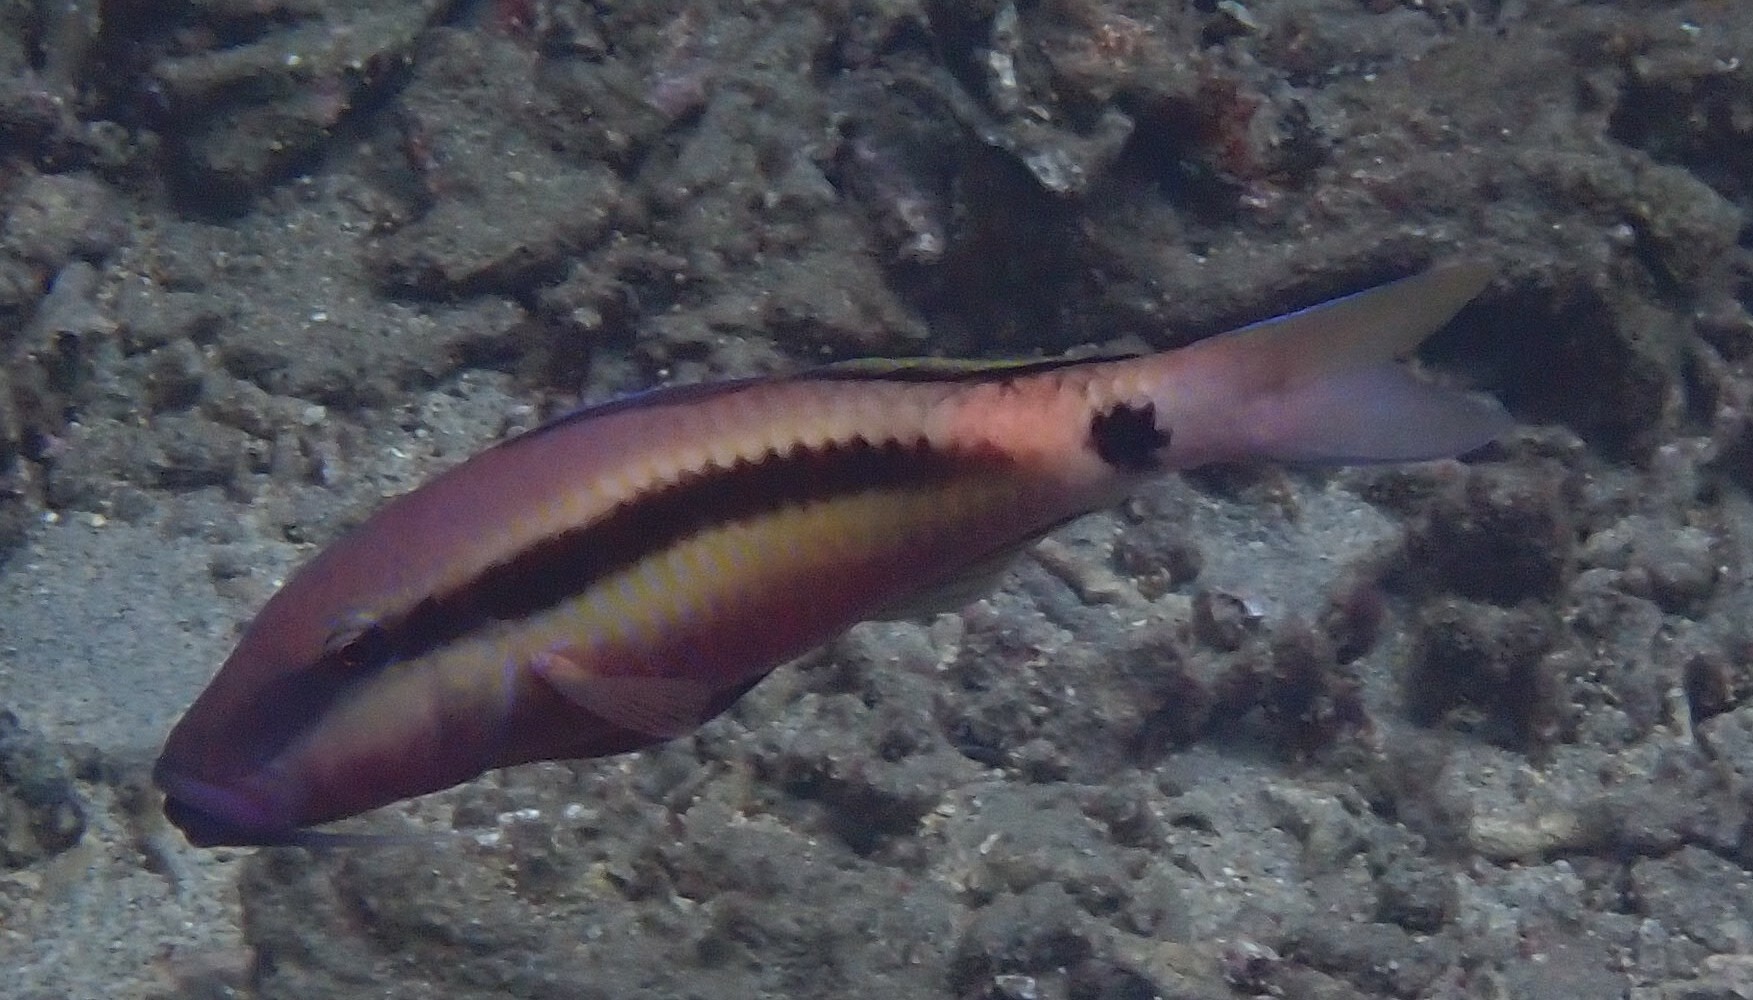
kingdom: Animalia
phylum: Chordata
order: Perciformes
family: Mullidae
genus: Parupeneus
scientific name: Parupeneus macronemus
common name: Long-barbel goatfish
